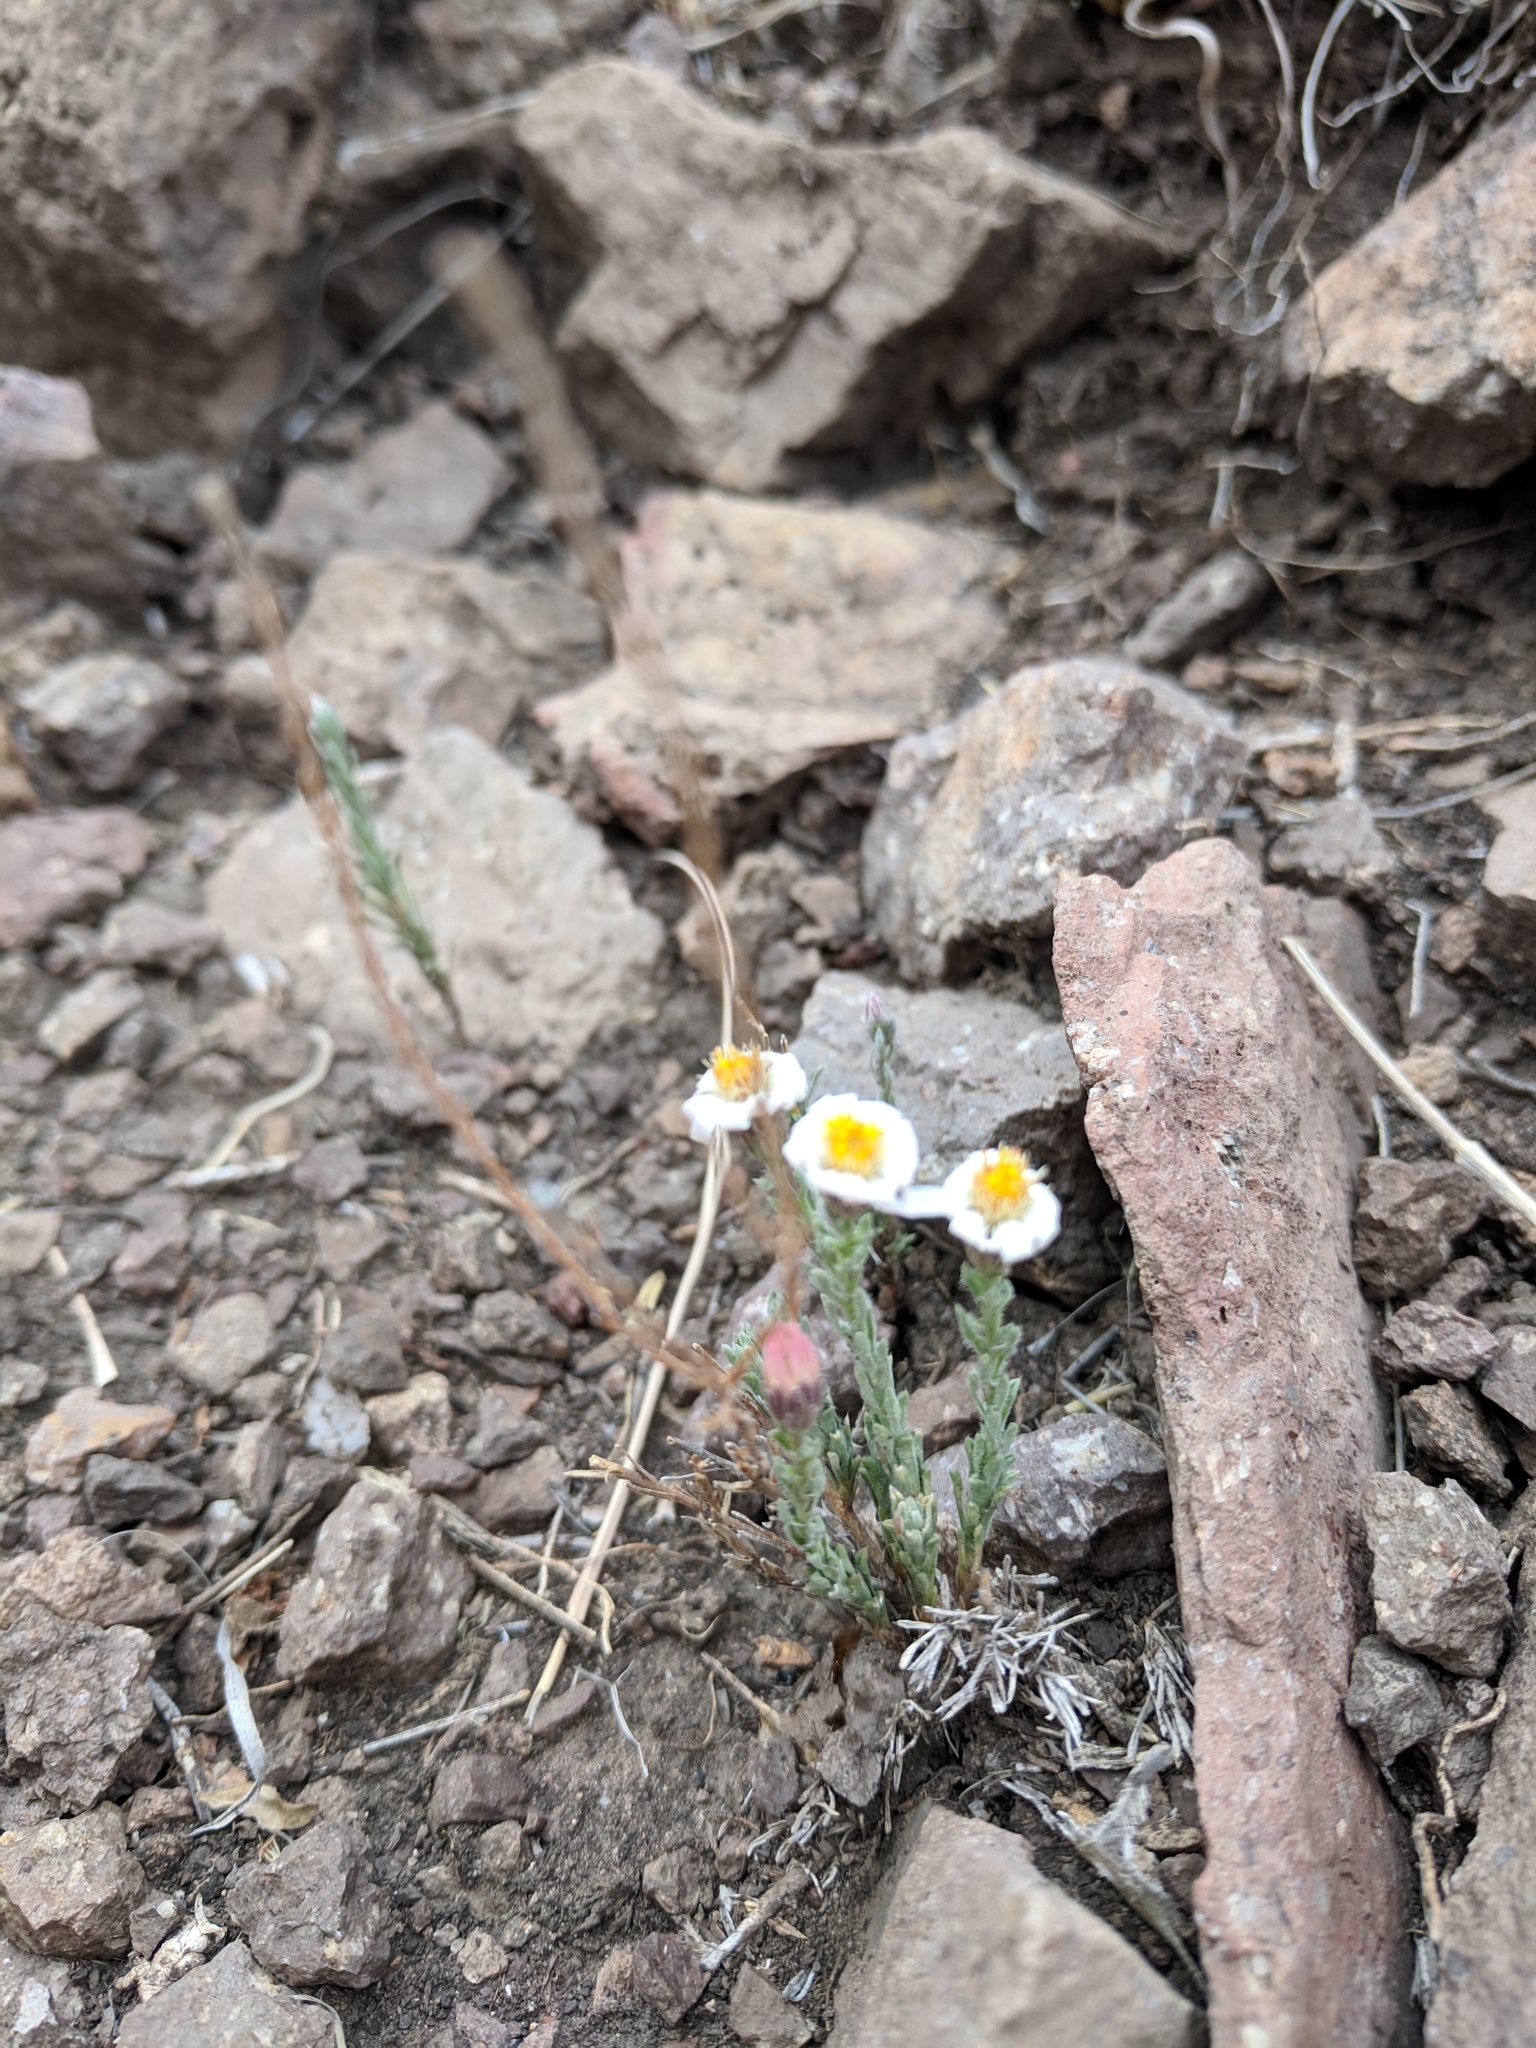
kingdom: Plantae
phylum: Tracheophyta
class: Magnoliopsida
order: Asterales
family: Asteraceae
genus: Chaetopappa
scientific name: Chaetopappa ericoides
